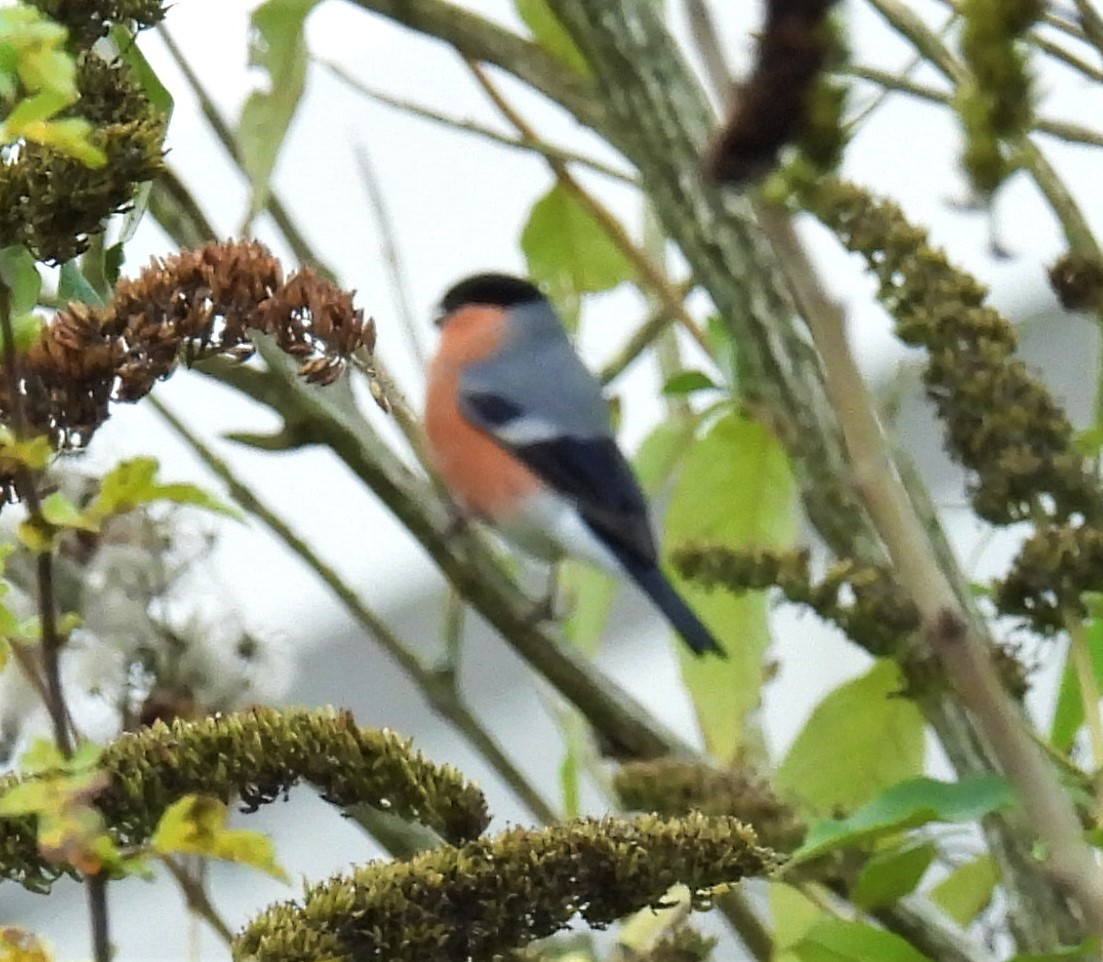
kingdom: Animalia
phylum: Chordata
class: Aves
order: Passeriformes
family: Fringillidae
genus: Pyrrhula
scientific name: Pyrrhula pyrrhula
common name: Eurasian bullfinch
